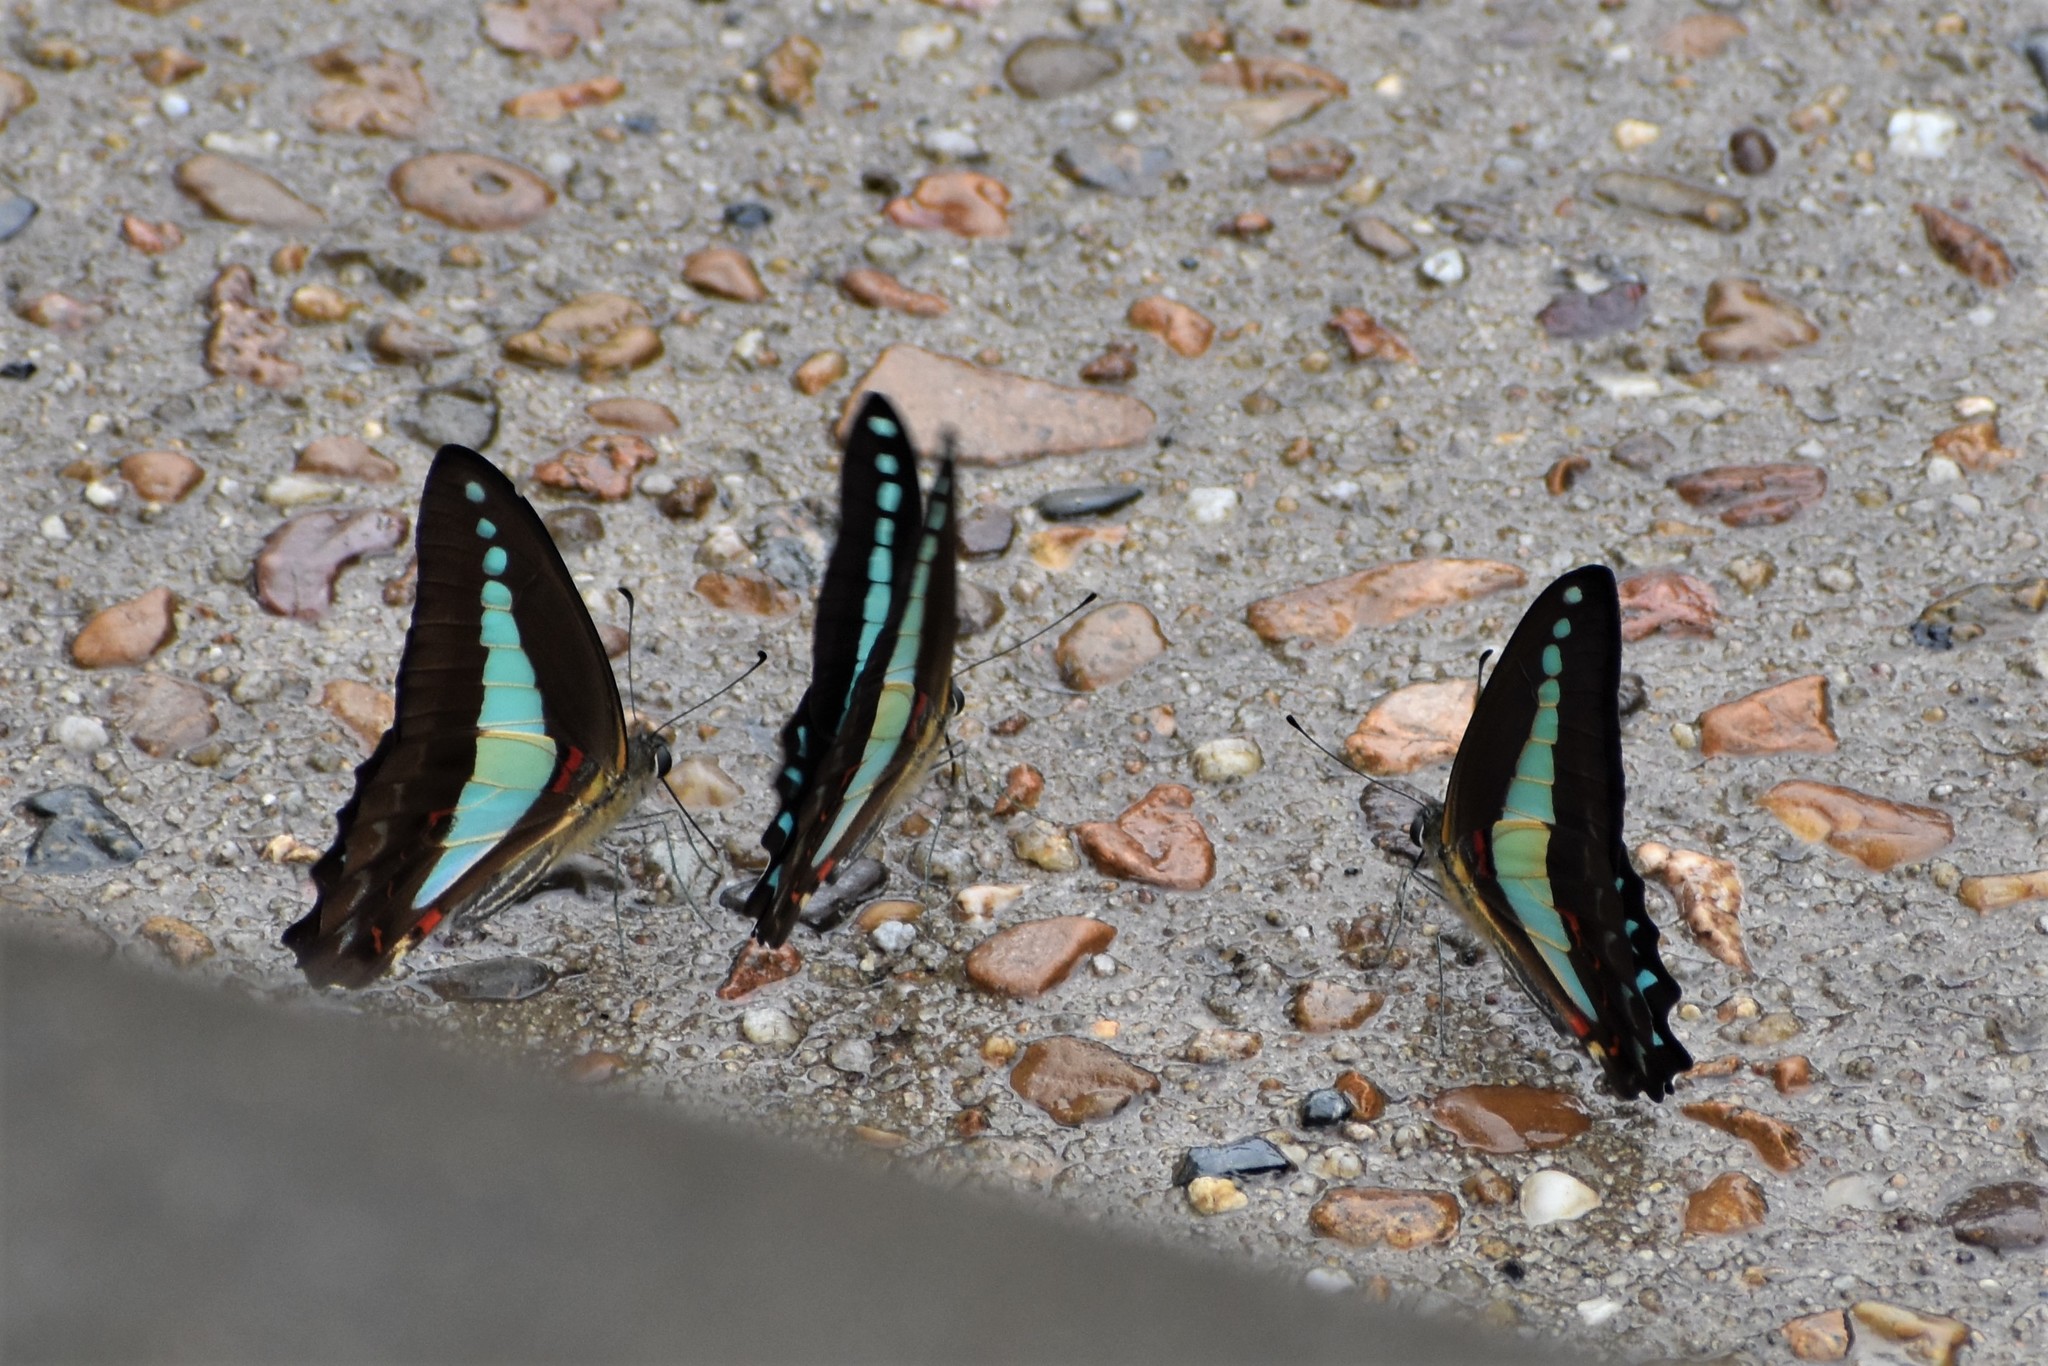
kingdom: Animalia
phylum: Arthropoda
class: Insecta
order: Lepidoptera
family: Papilionidae
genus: Graphium
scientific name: Graphium
